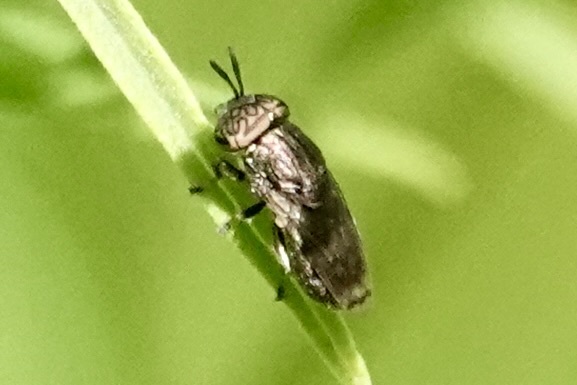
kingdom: Animalia
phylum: Arthropoda
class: Insecta
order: Diptera
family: Syrphidae
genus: Orthonevra
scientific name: Orthonevra nitida
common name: Wavy mucksucker
